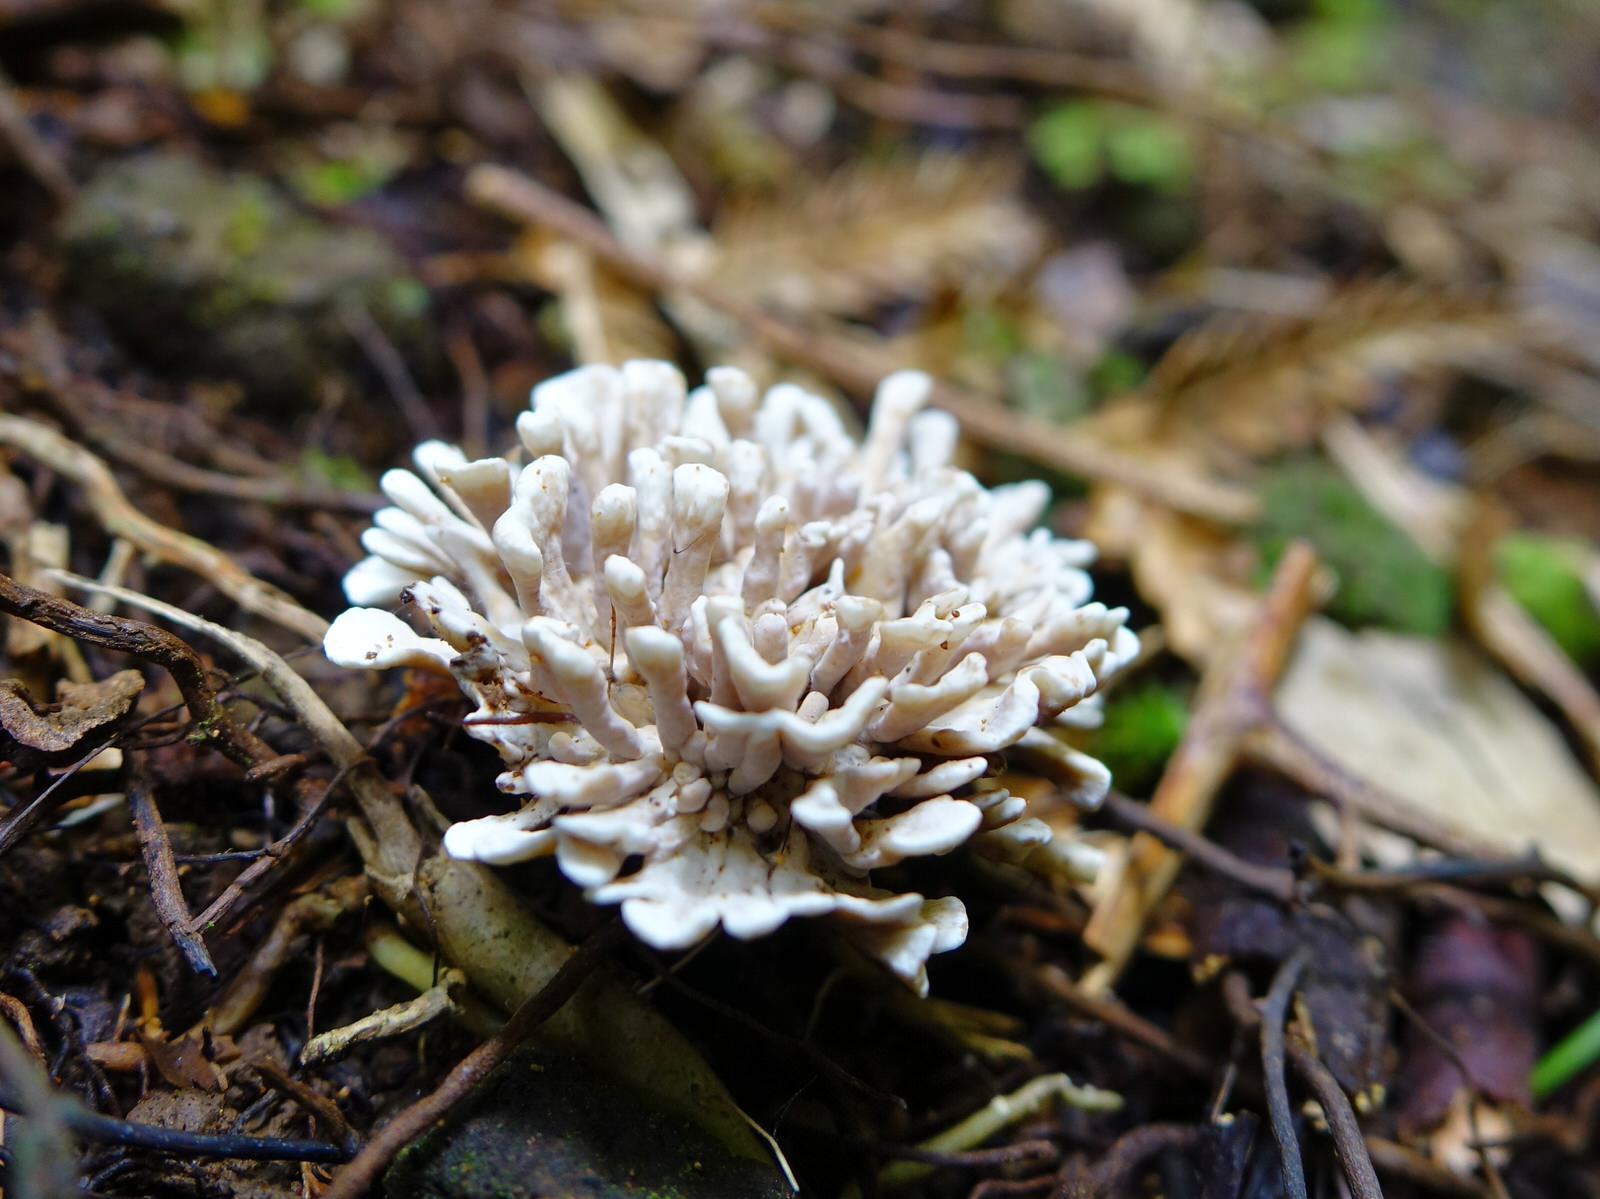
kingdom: Fungi
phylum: Basidiomycota
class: Agaricomycetes
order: Stereopsidales
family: Stereopsidaceae
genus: Stereopsis
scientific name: Stereopsis hiscens
